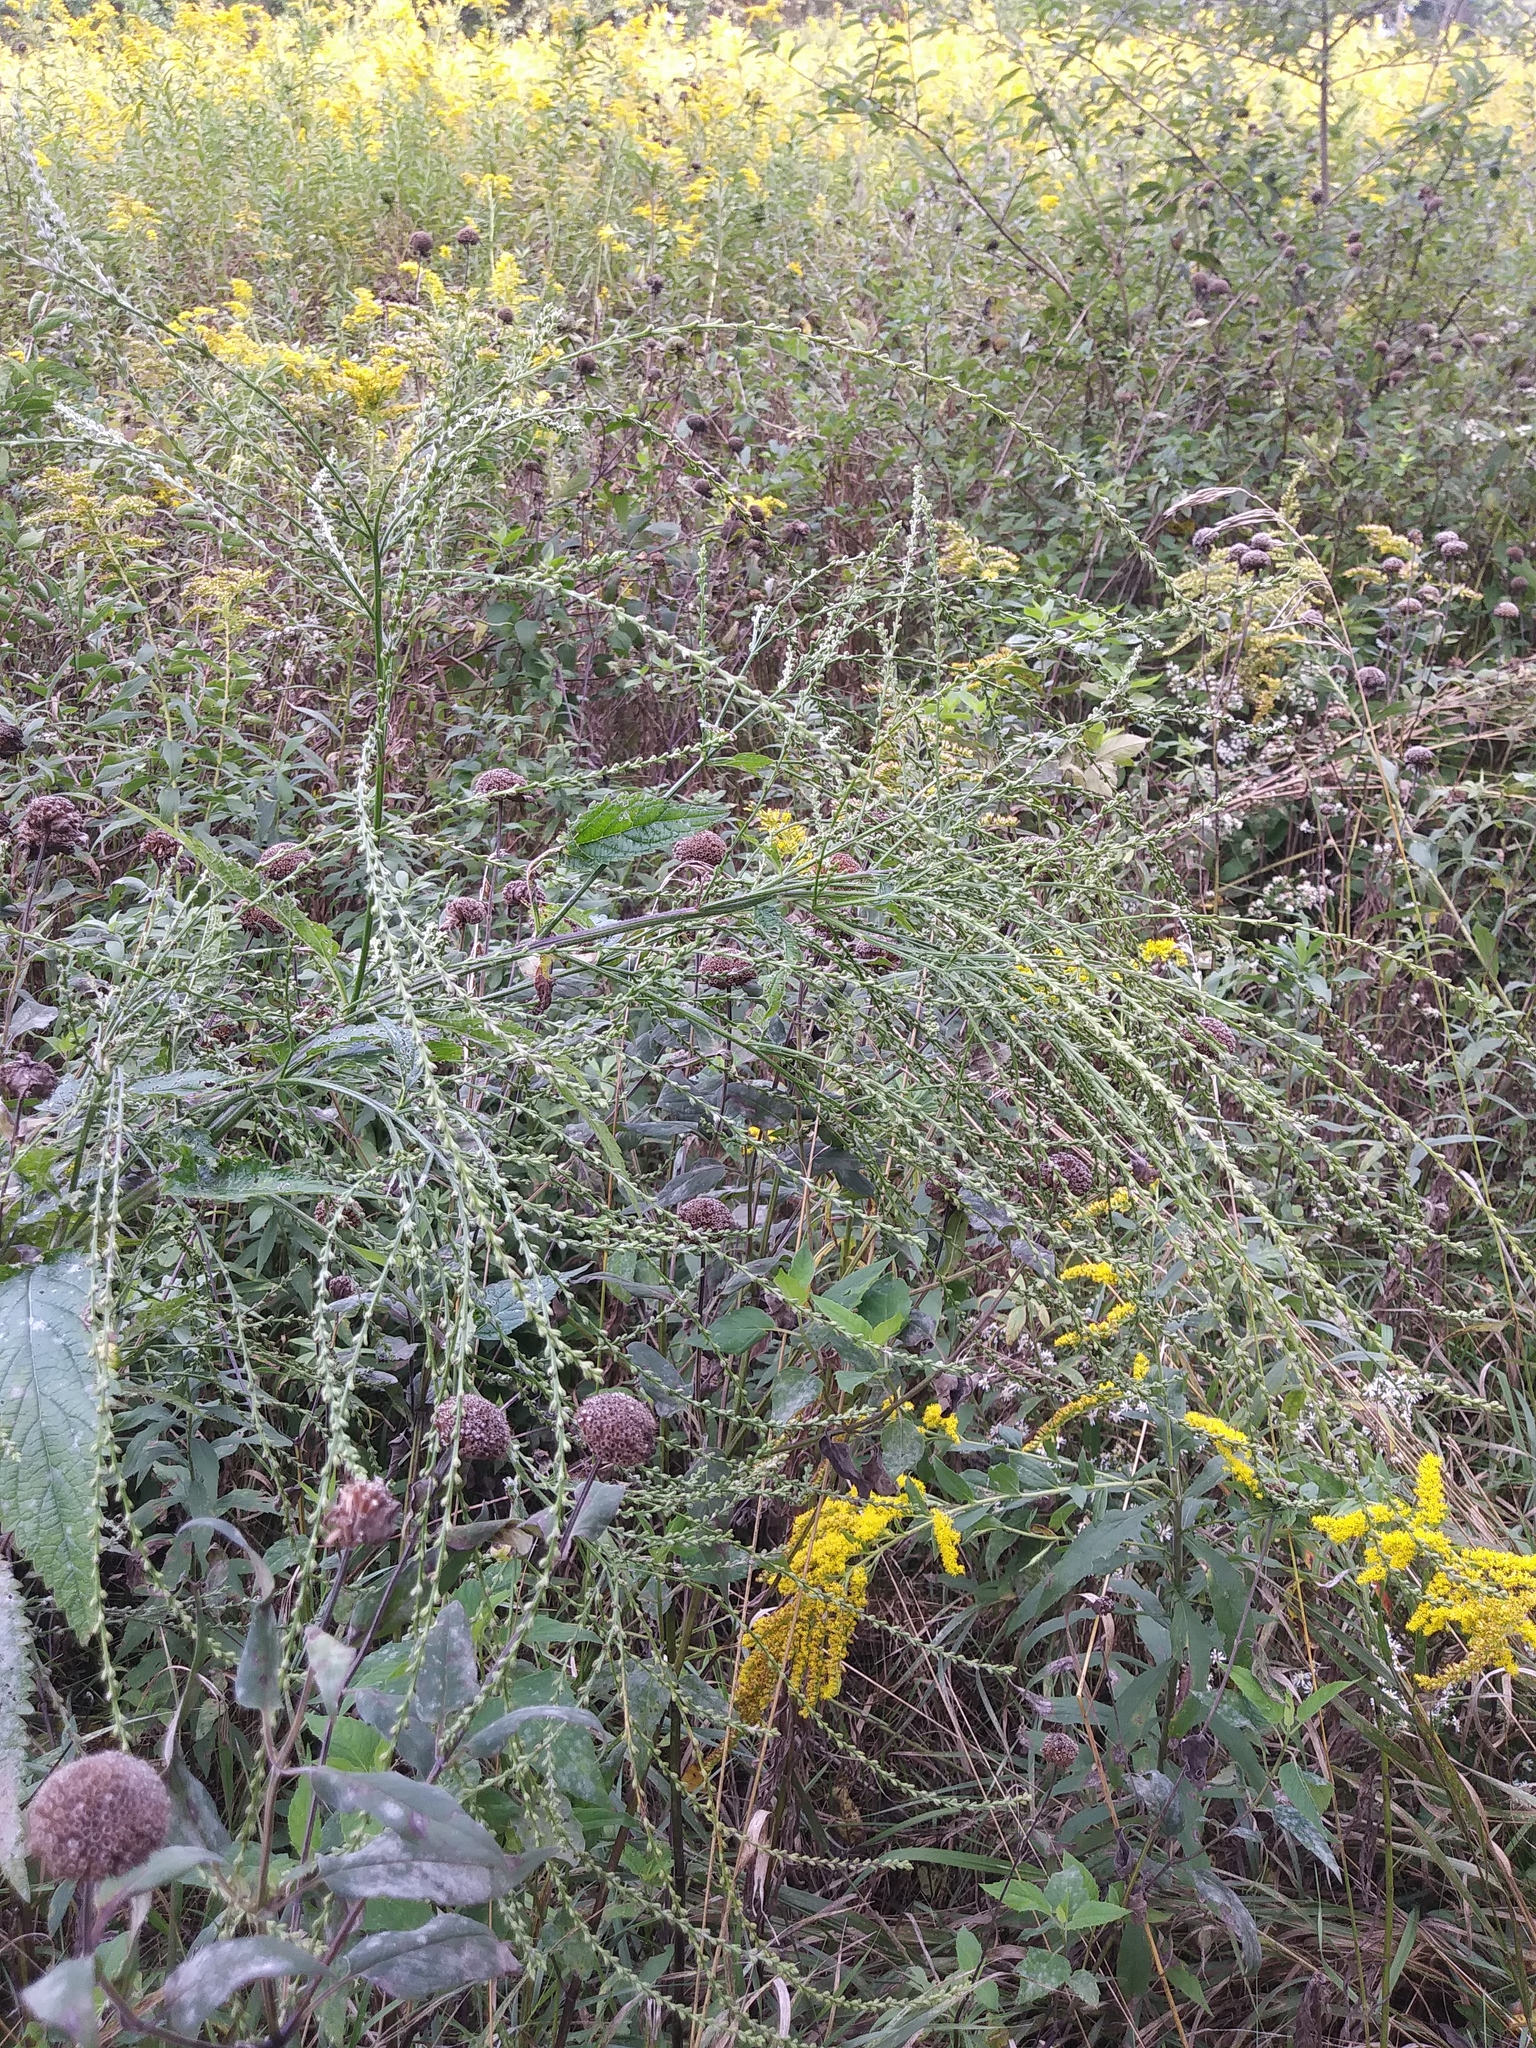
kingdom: Plantae
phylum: Tracheophyta
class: Magnoliopsida
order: Lamiales
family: Verbenaceae
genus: Verbena
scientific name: Verbena urticifolia
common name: Nettle-leaved vervain
